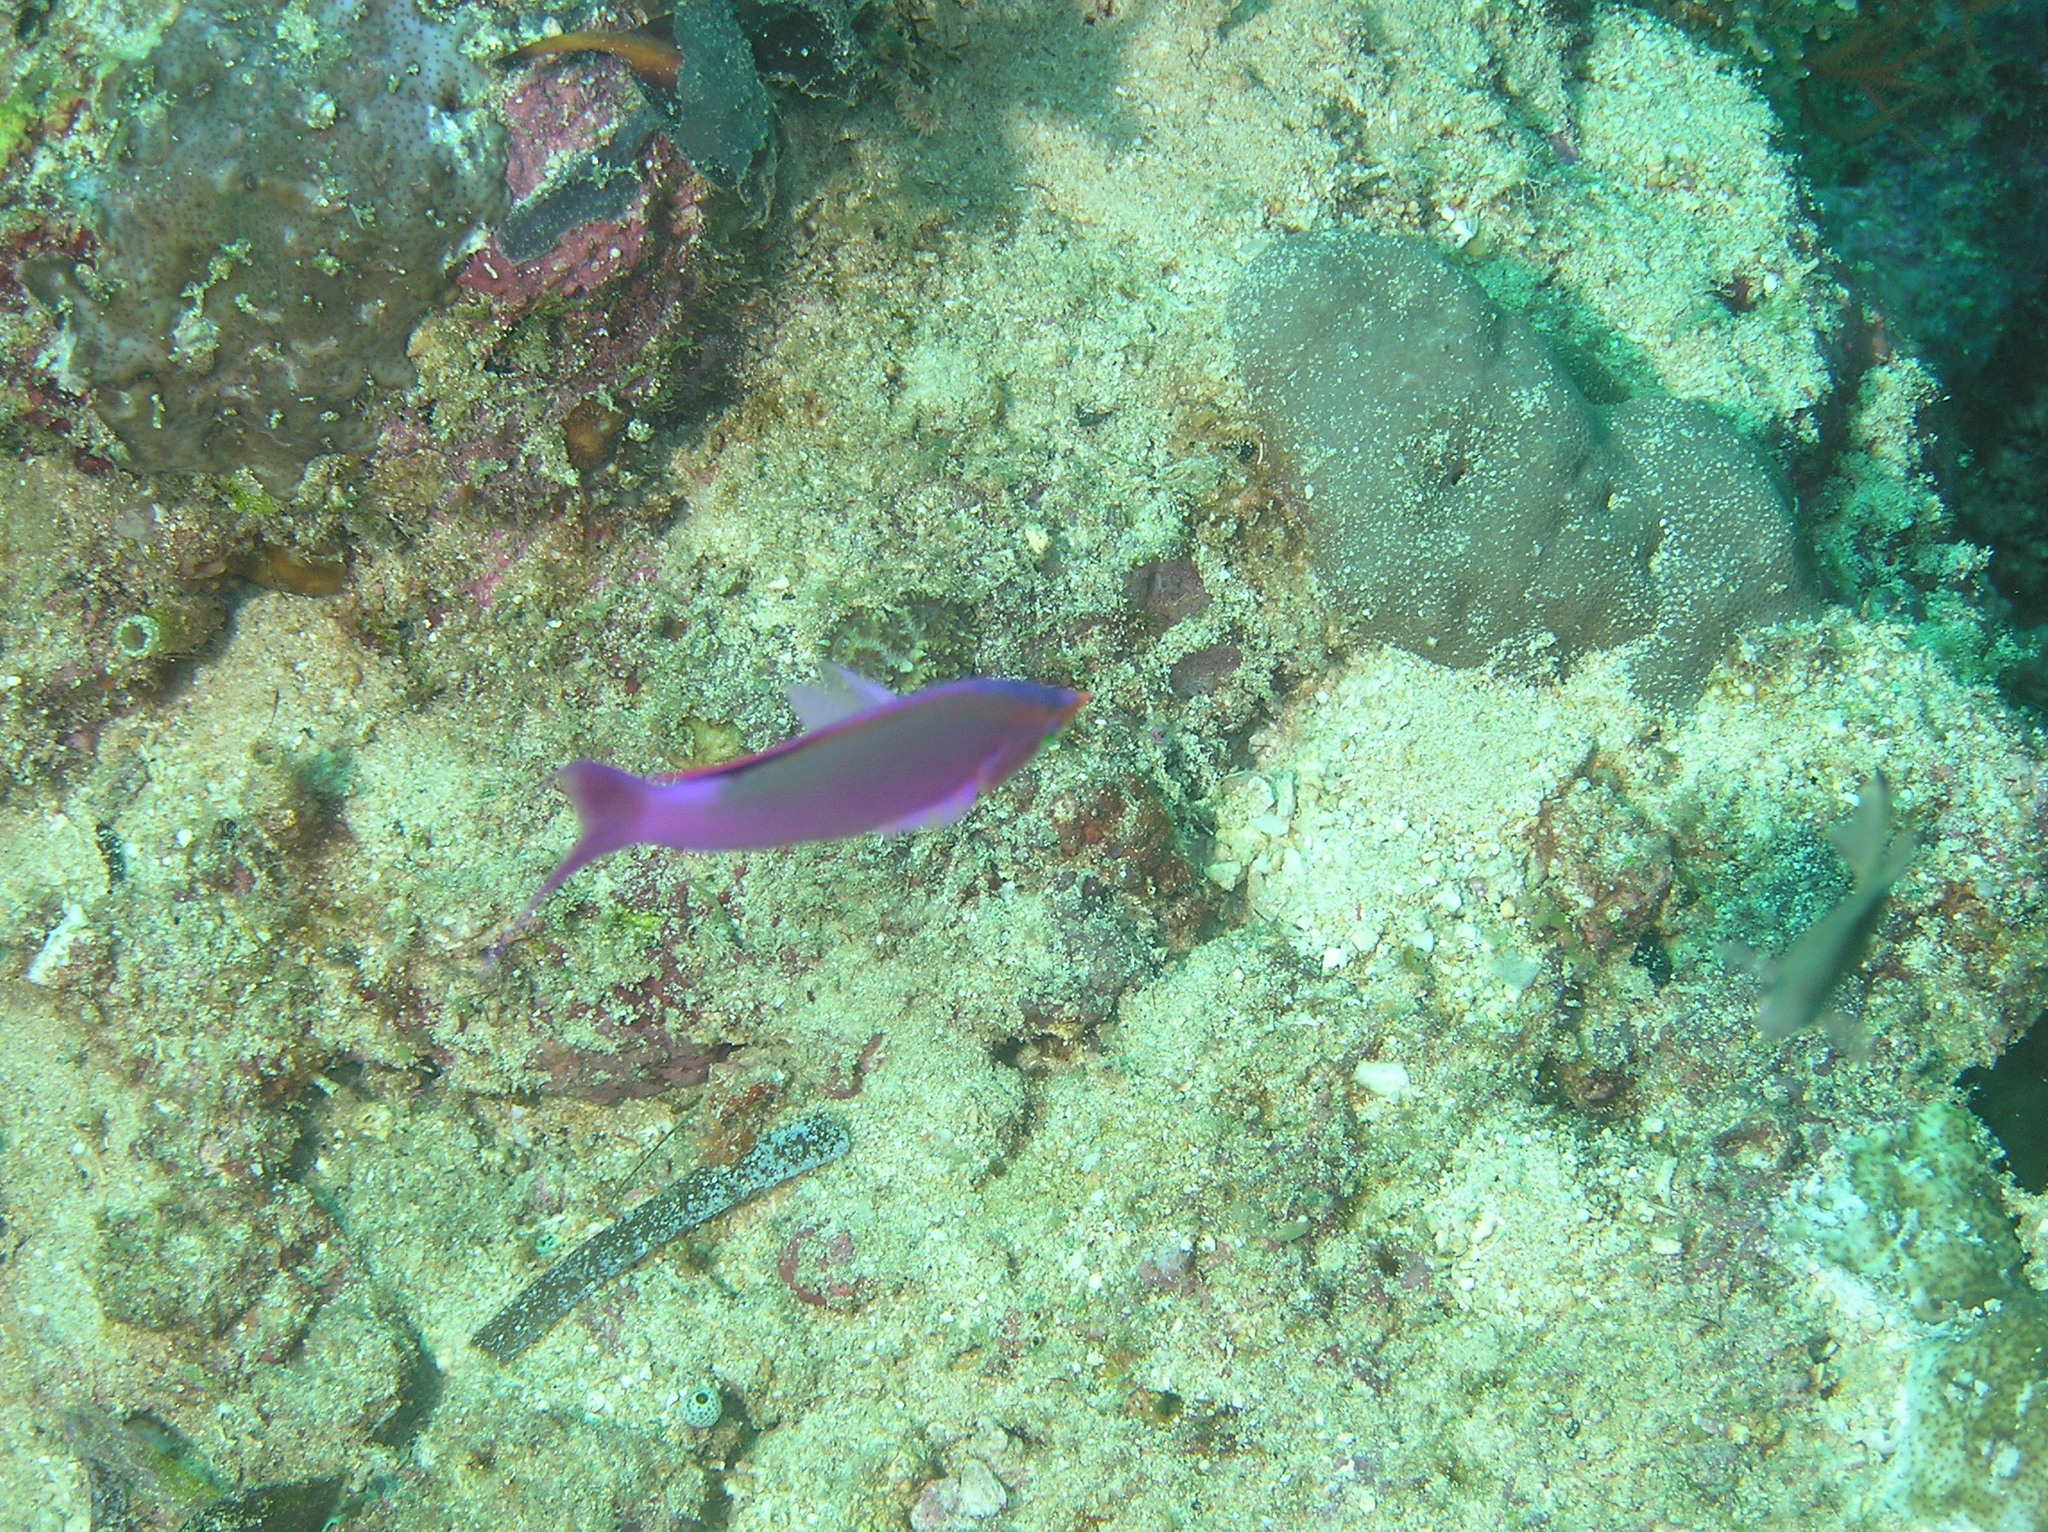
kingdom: Animalia
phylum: Chordata
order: Perciformes
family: Serranidae
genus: Pseudanthias
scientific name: Pseudanthias tuka
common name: Purple queen
